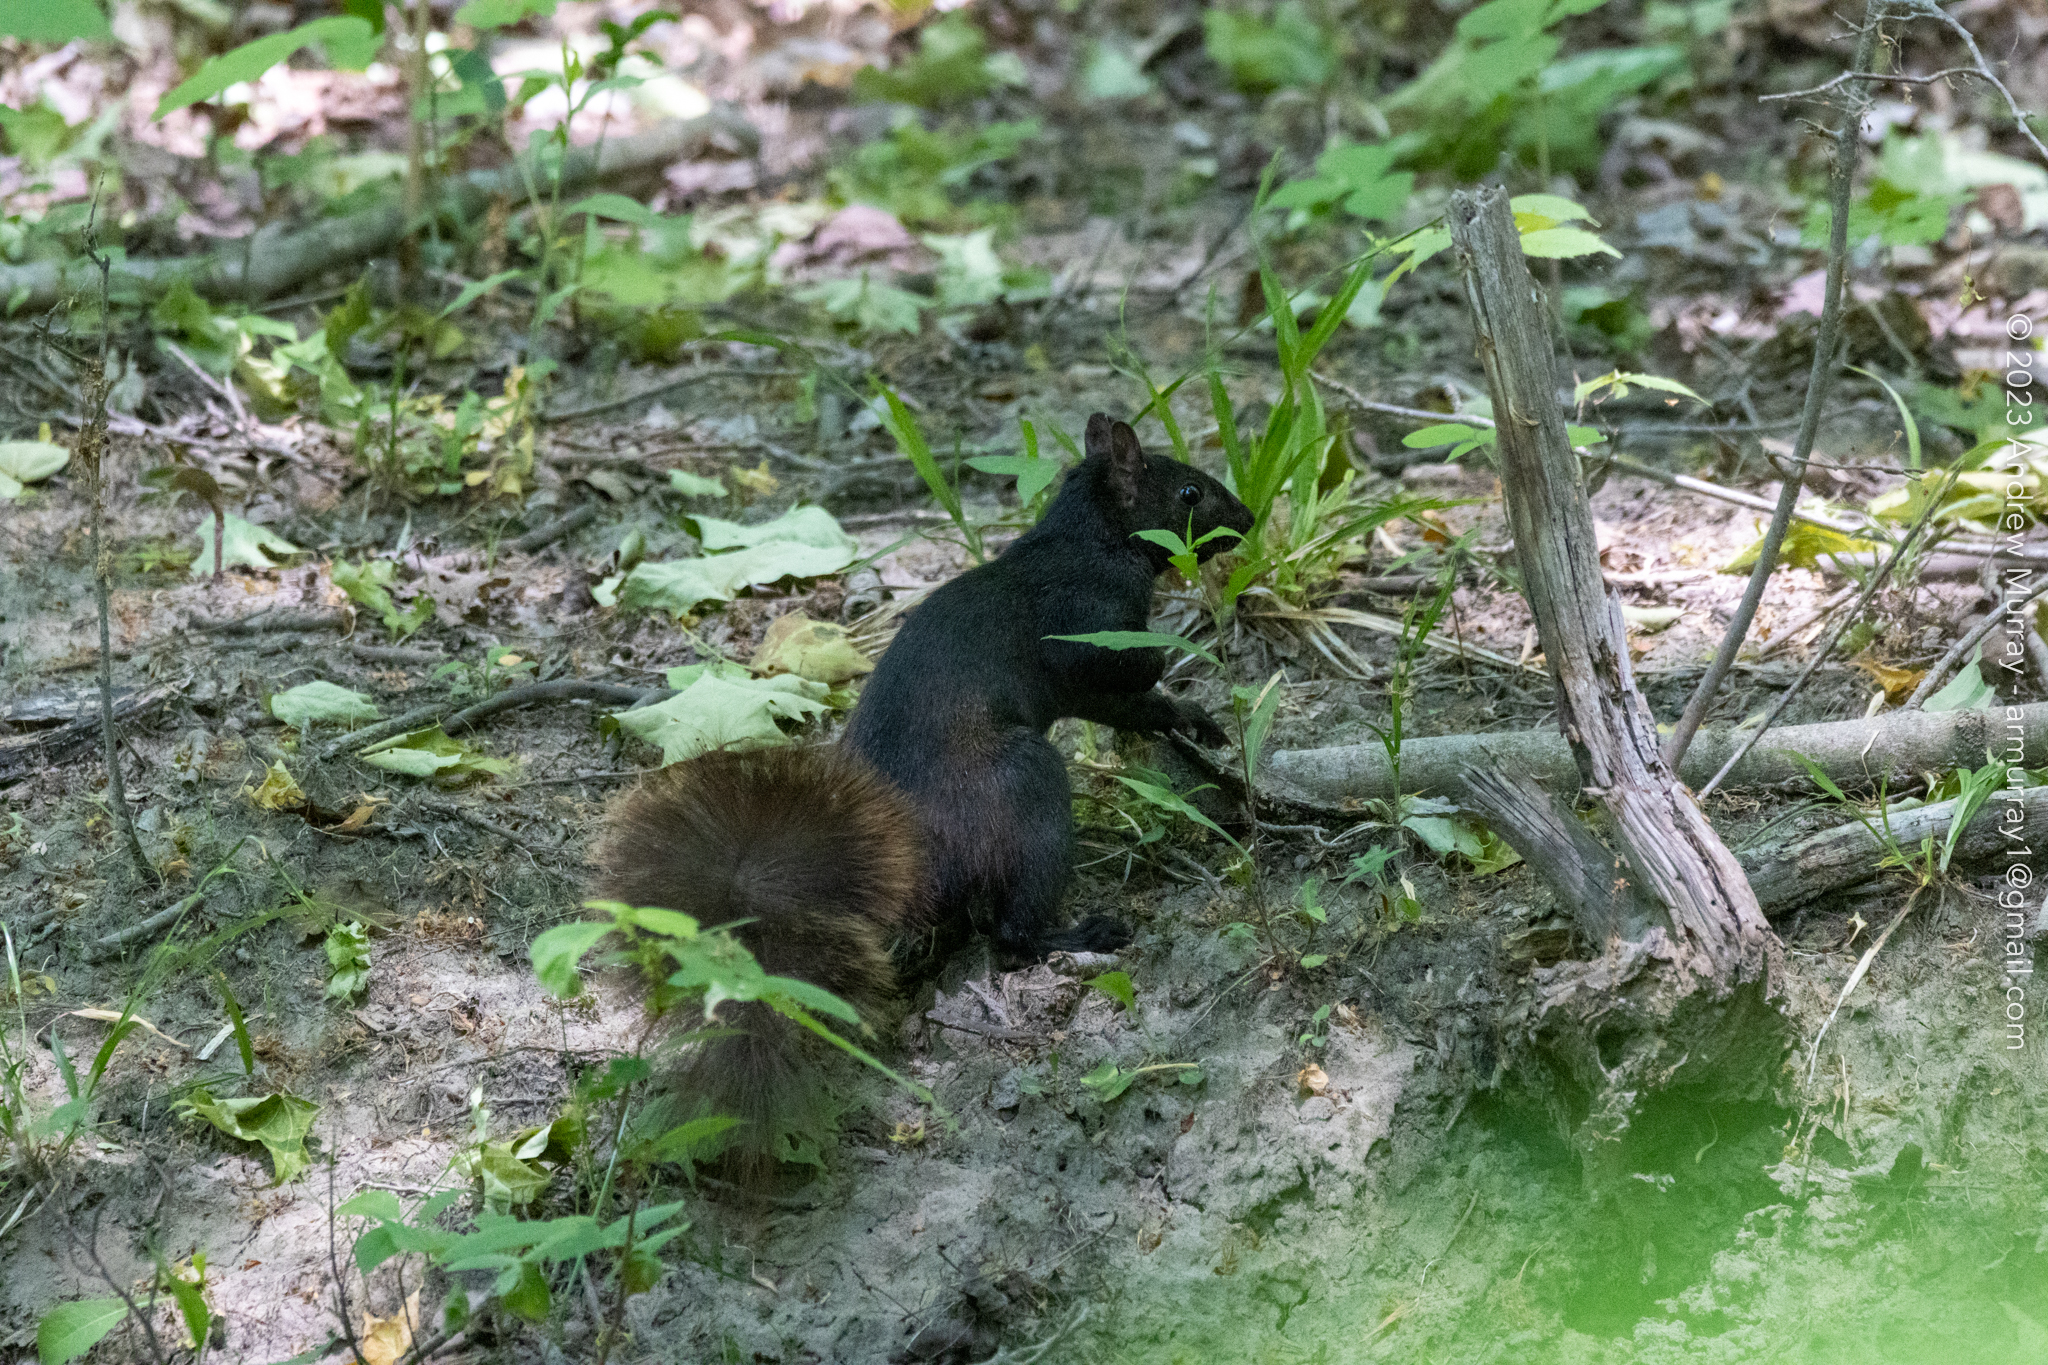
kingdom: Animalia
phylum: Chordata
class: Mammalia
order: Rodentia
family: Sciuridae
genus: Sciurus
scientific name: Sciurus carolinensis
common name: Eastern gray squirrel
